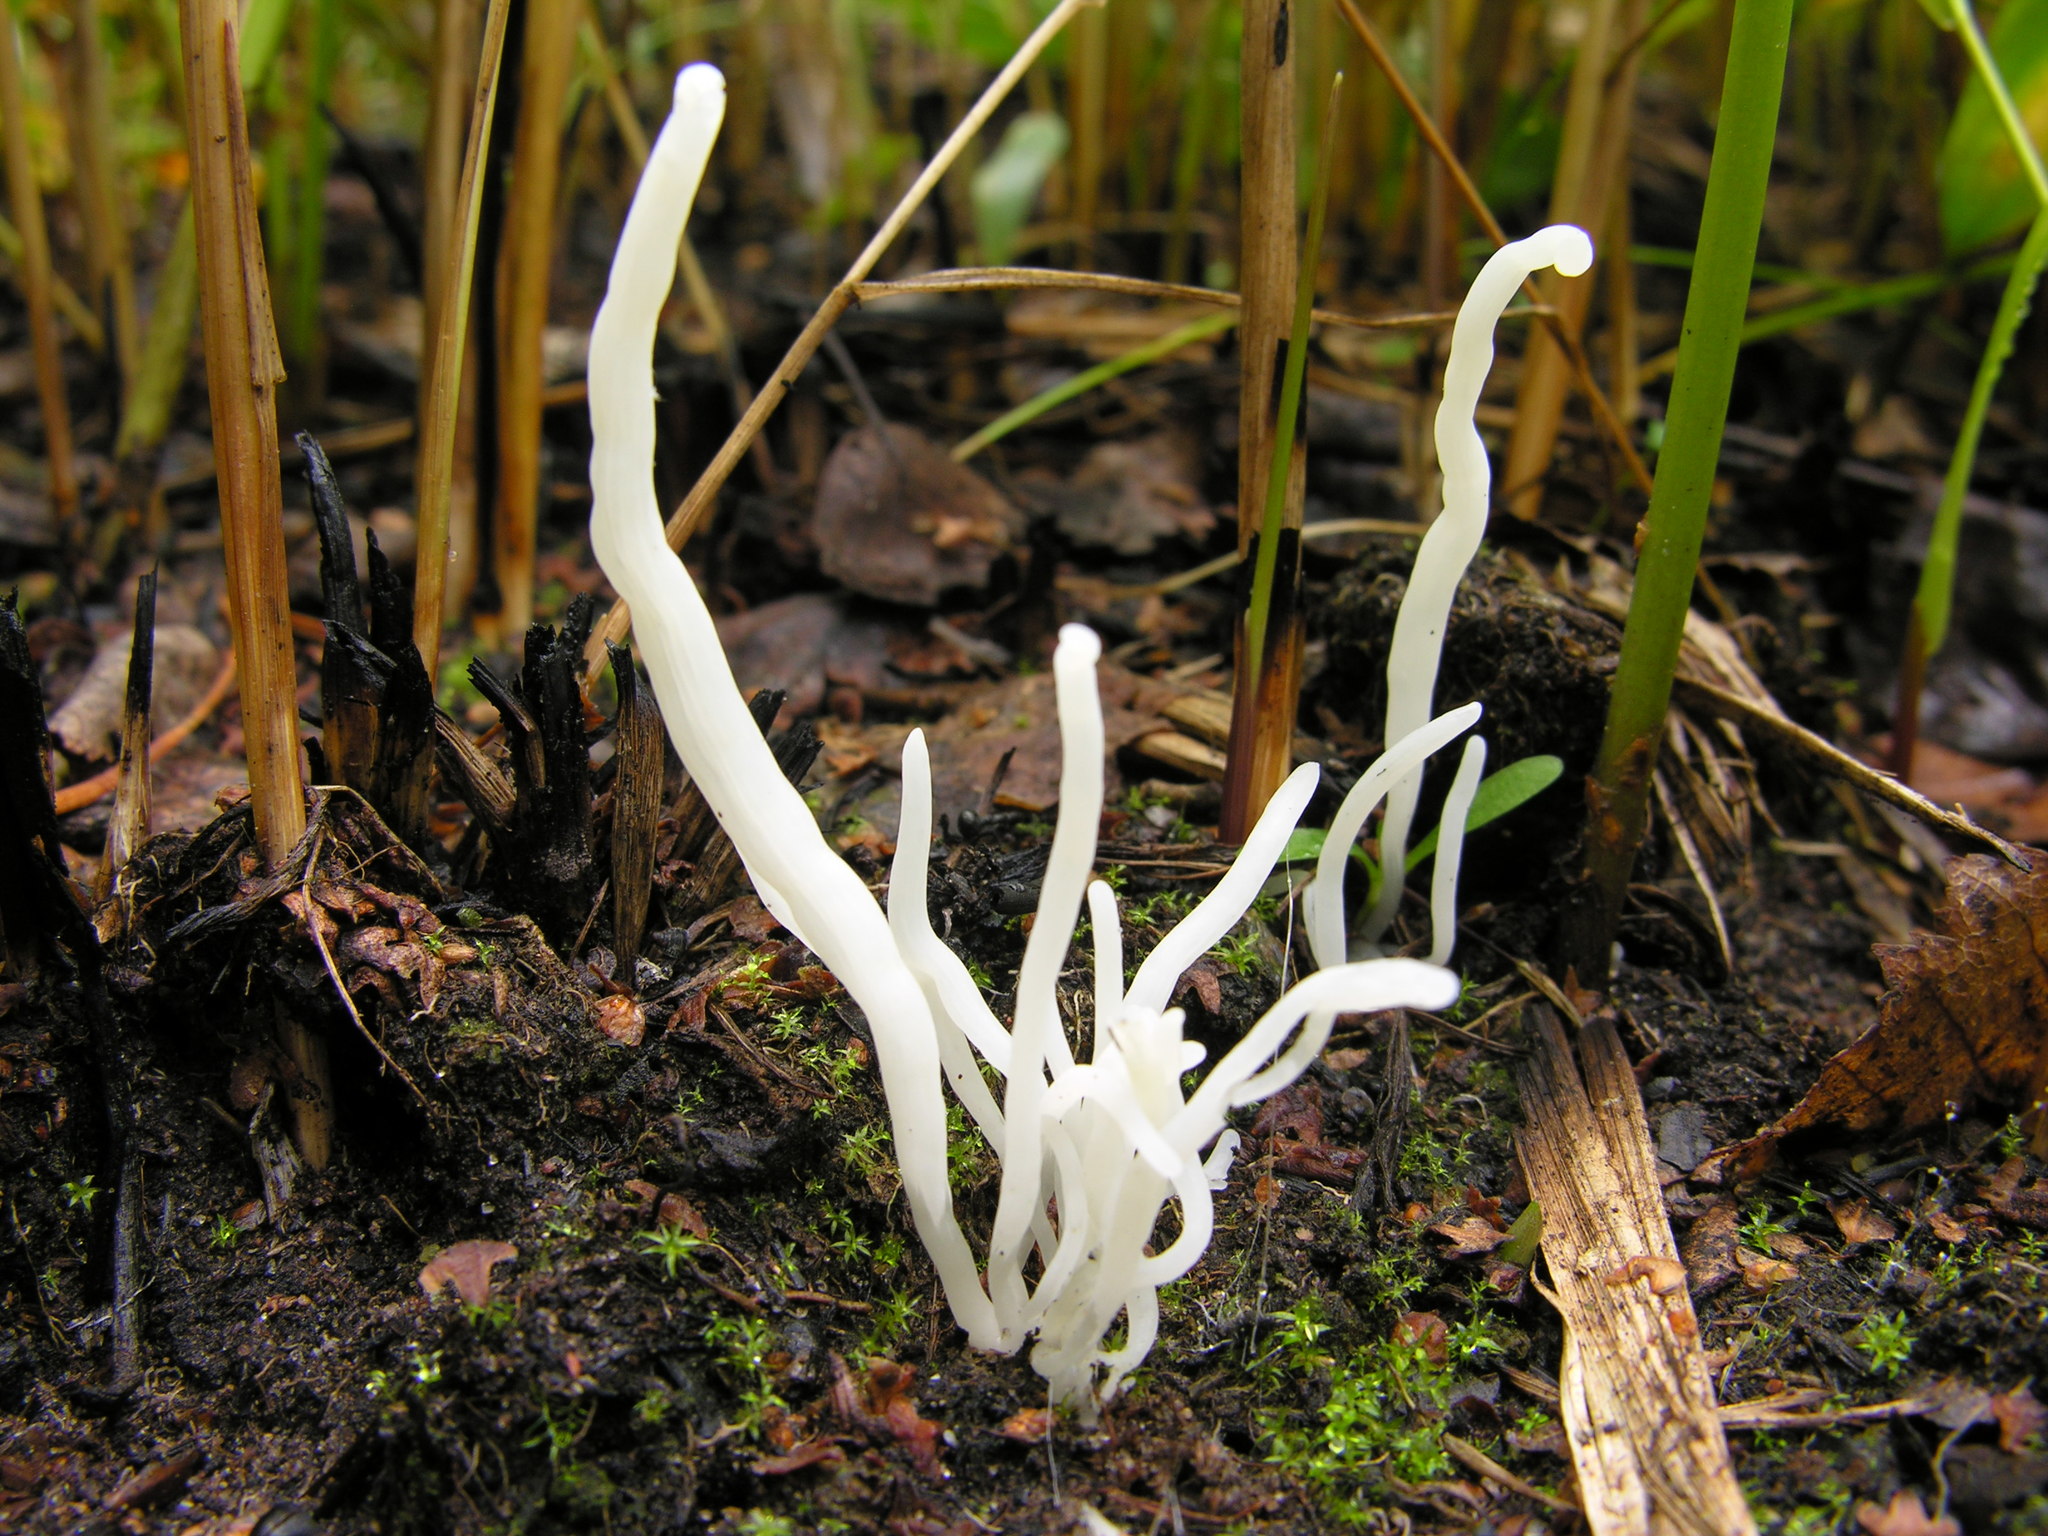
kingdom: Fungi
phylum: Basidiomycota
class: Agaricomycetes
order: Agaricales
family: Clavariaceae
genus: Clavaria
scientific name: Clavaria fragilis
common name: White spindles
